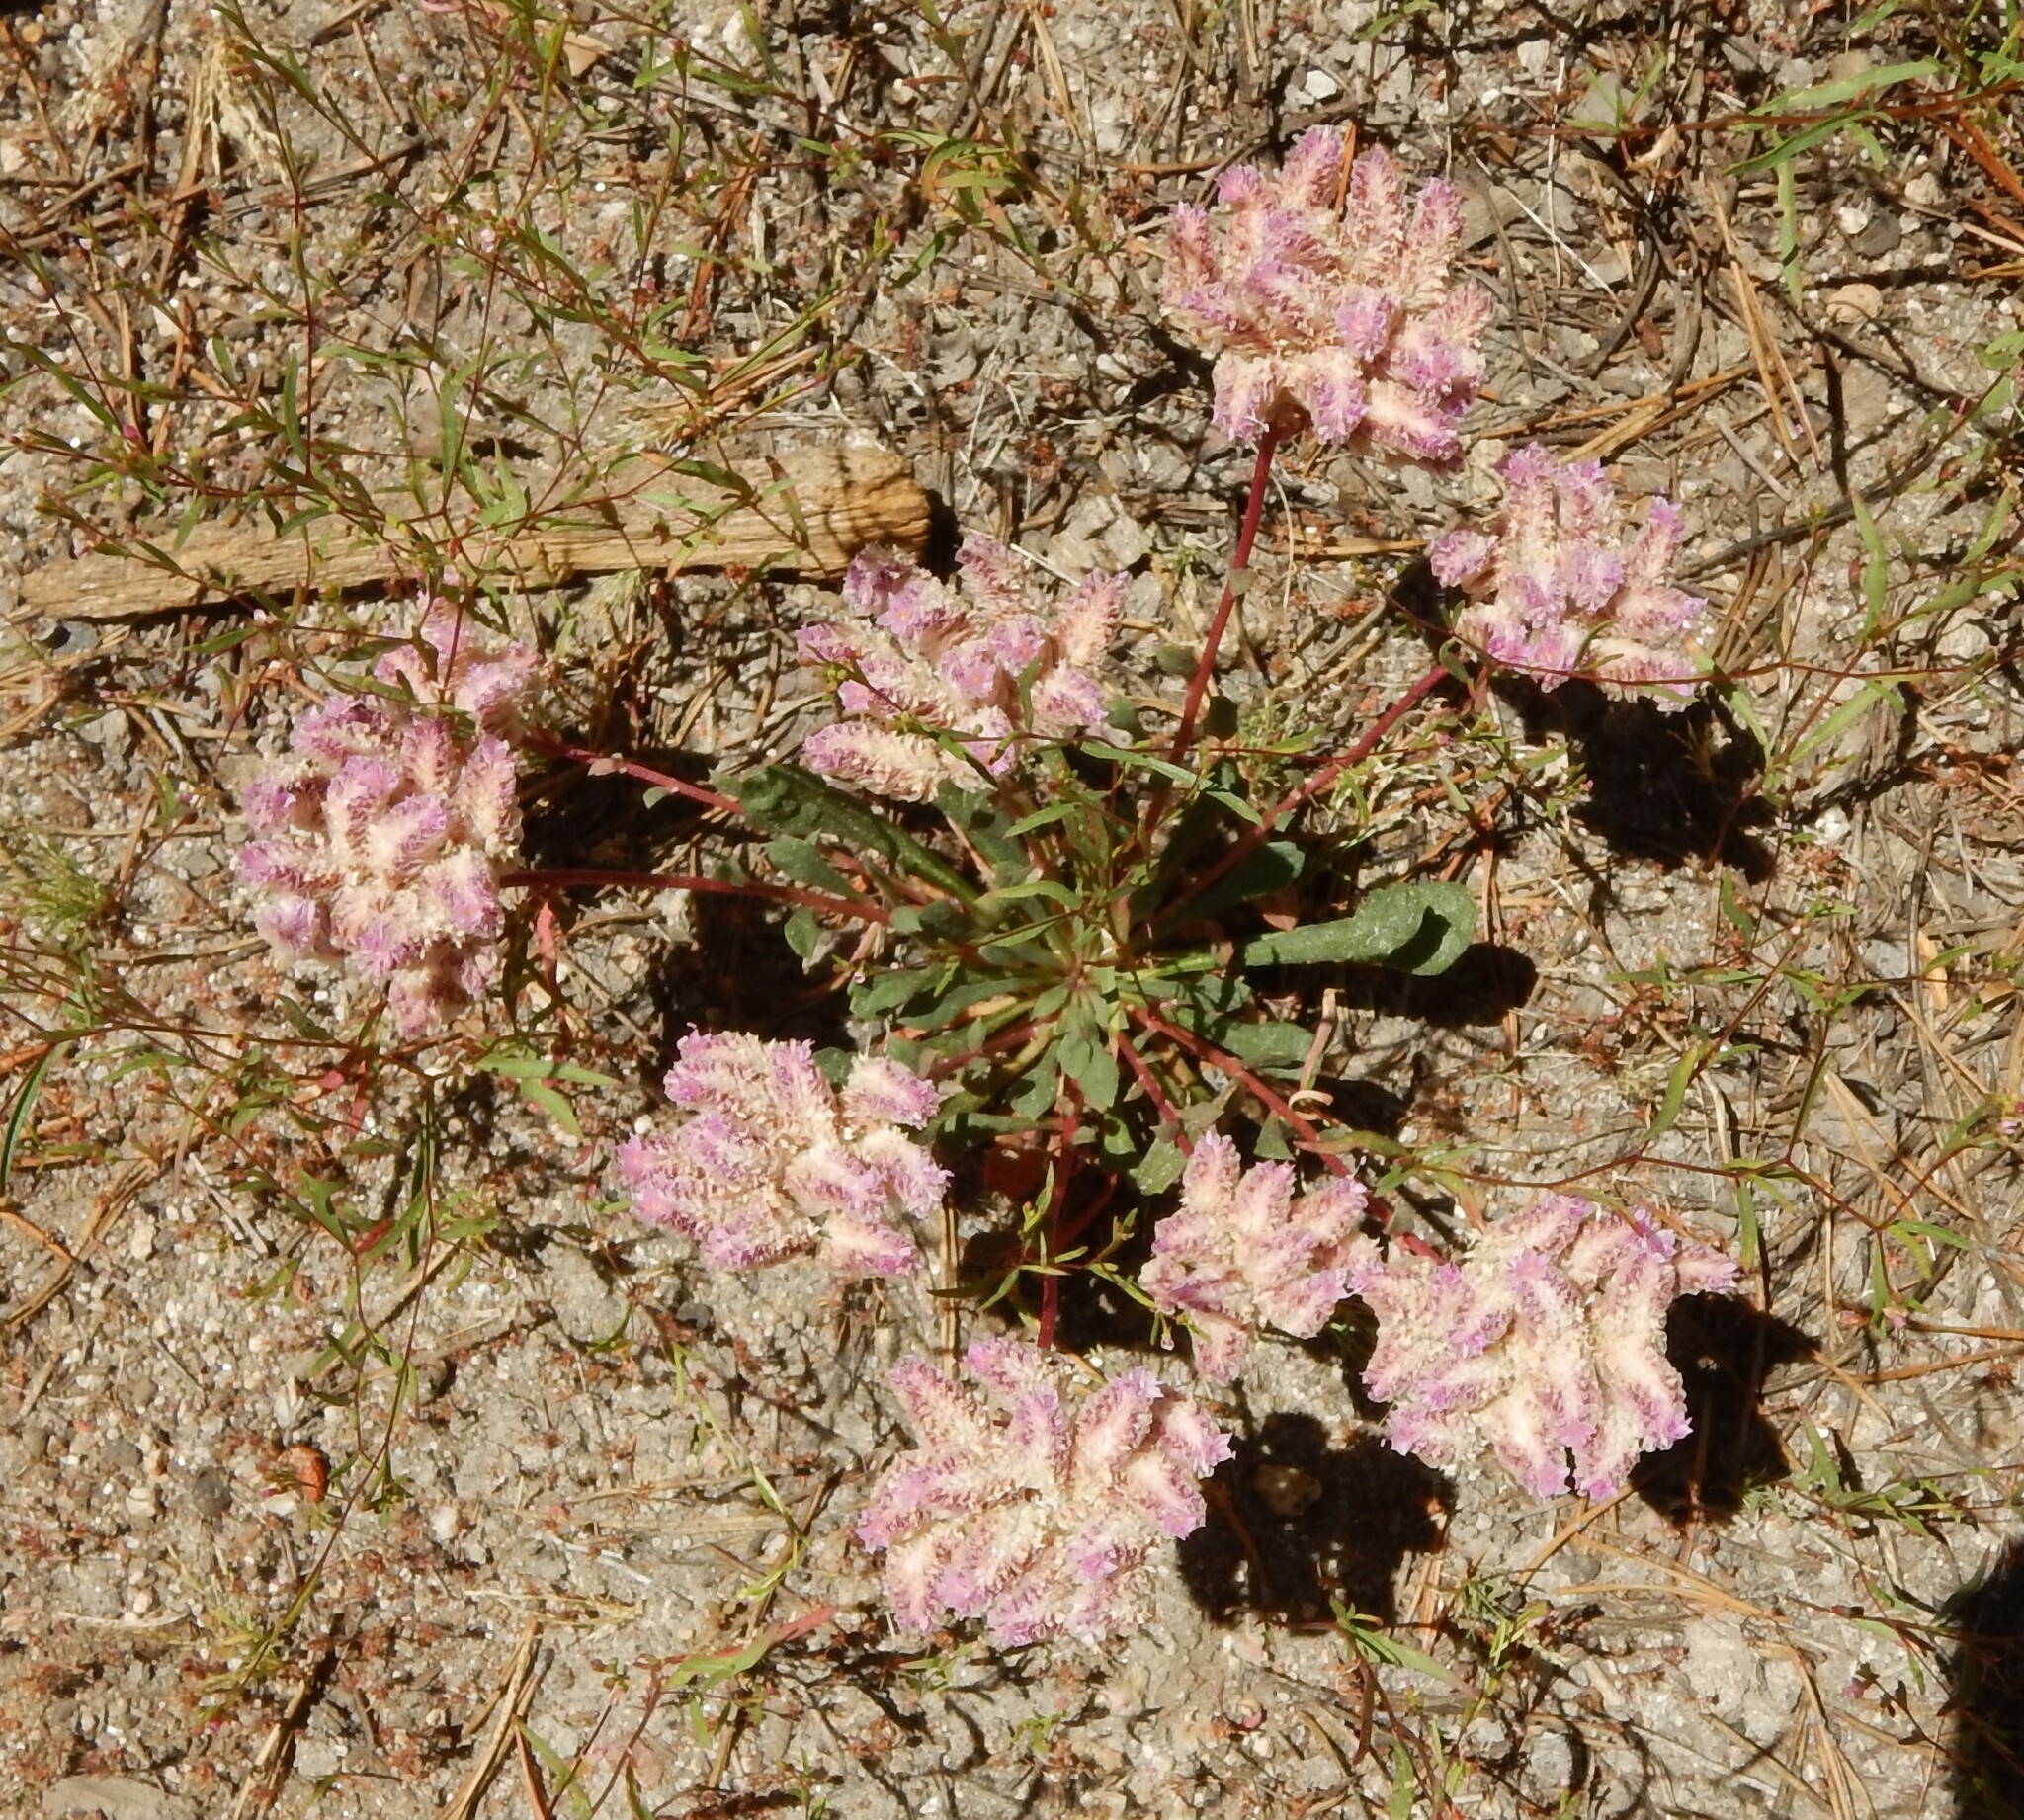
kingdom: Plantae
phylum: Tracheophyta
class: Magnoliopsida
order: Caryophyllales
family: Montiaceae
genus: Calyptridium
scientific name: Calyptridium monospermum
